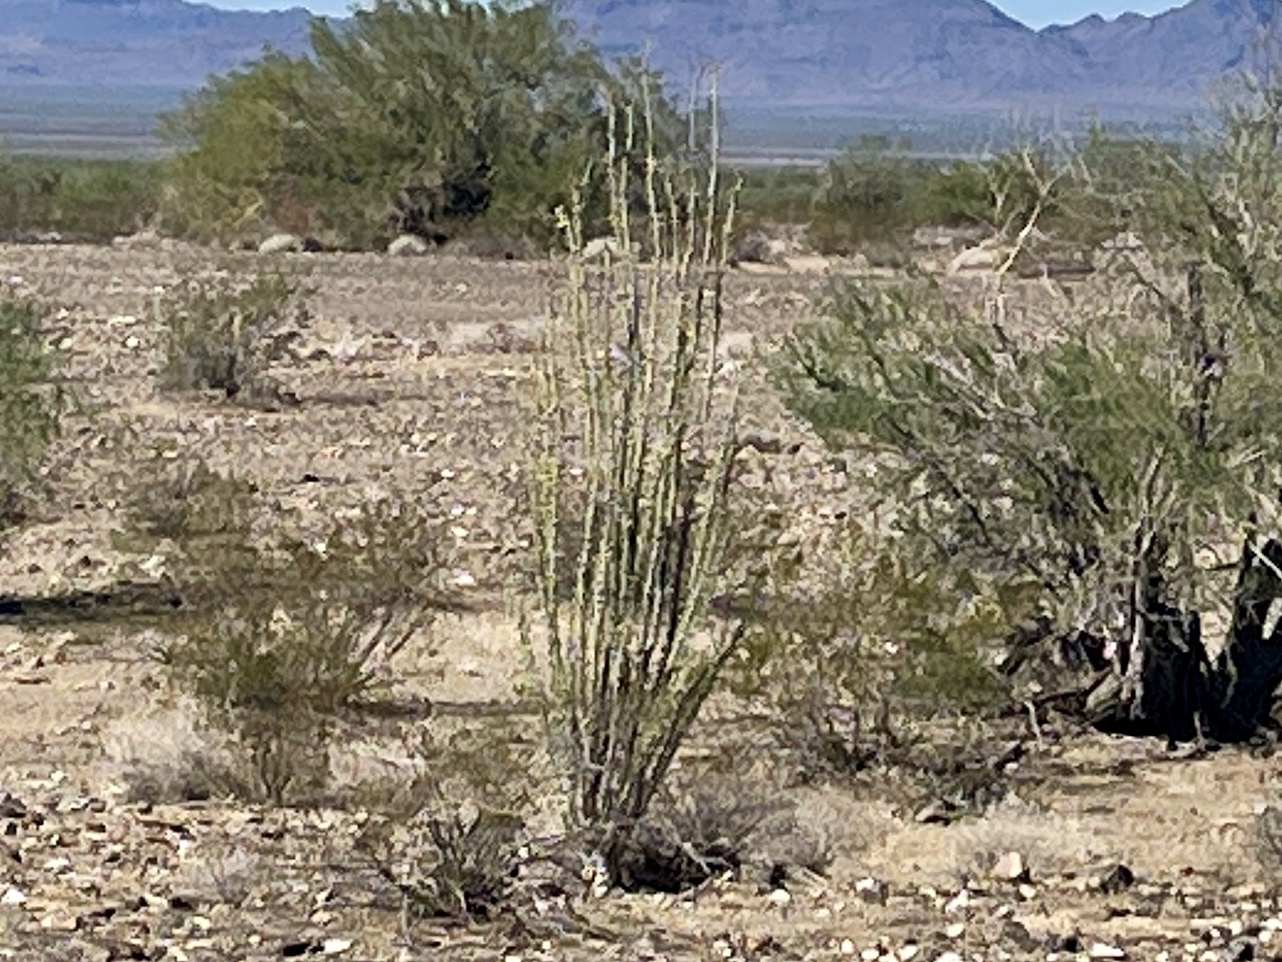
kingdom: Plantae
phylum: Tracheophyta
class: Magnoliopsida
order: Ericales
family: Fouquieriaceae
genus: Fouquieria
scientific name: Fouquieria splendens
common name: Vine-cactus
